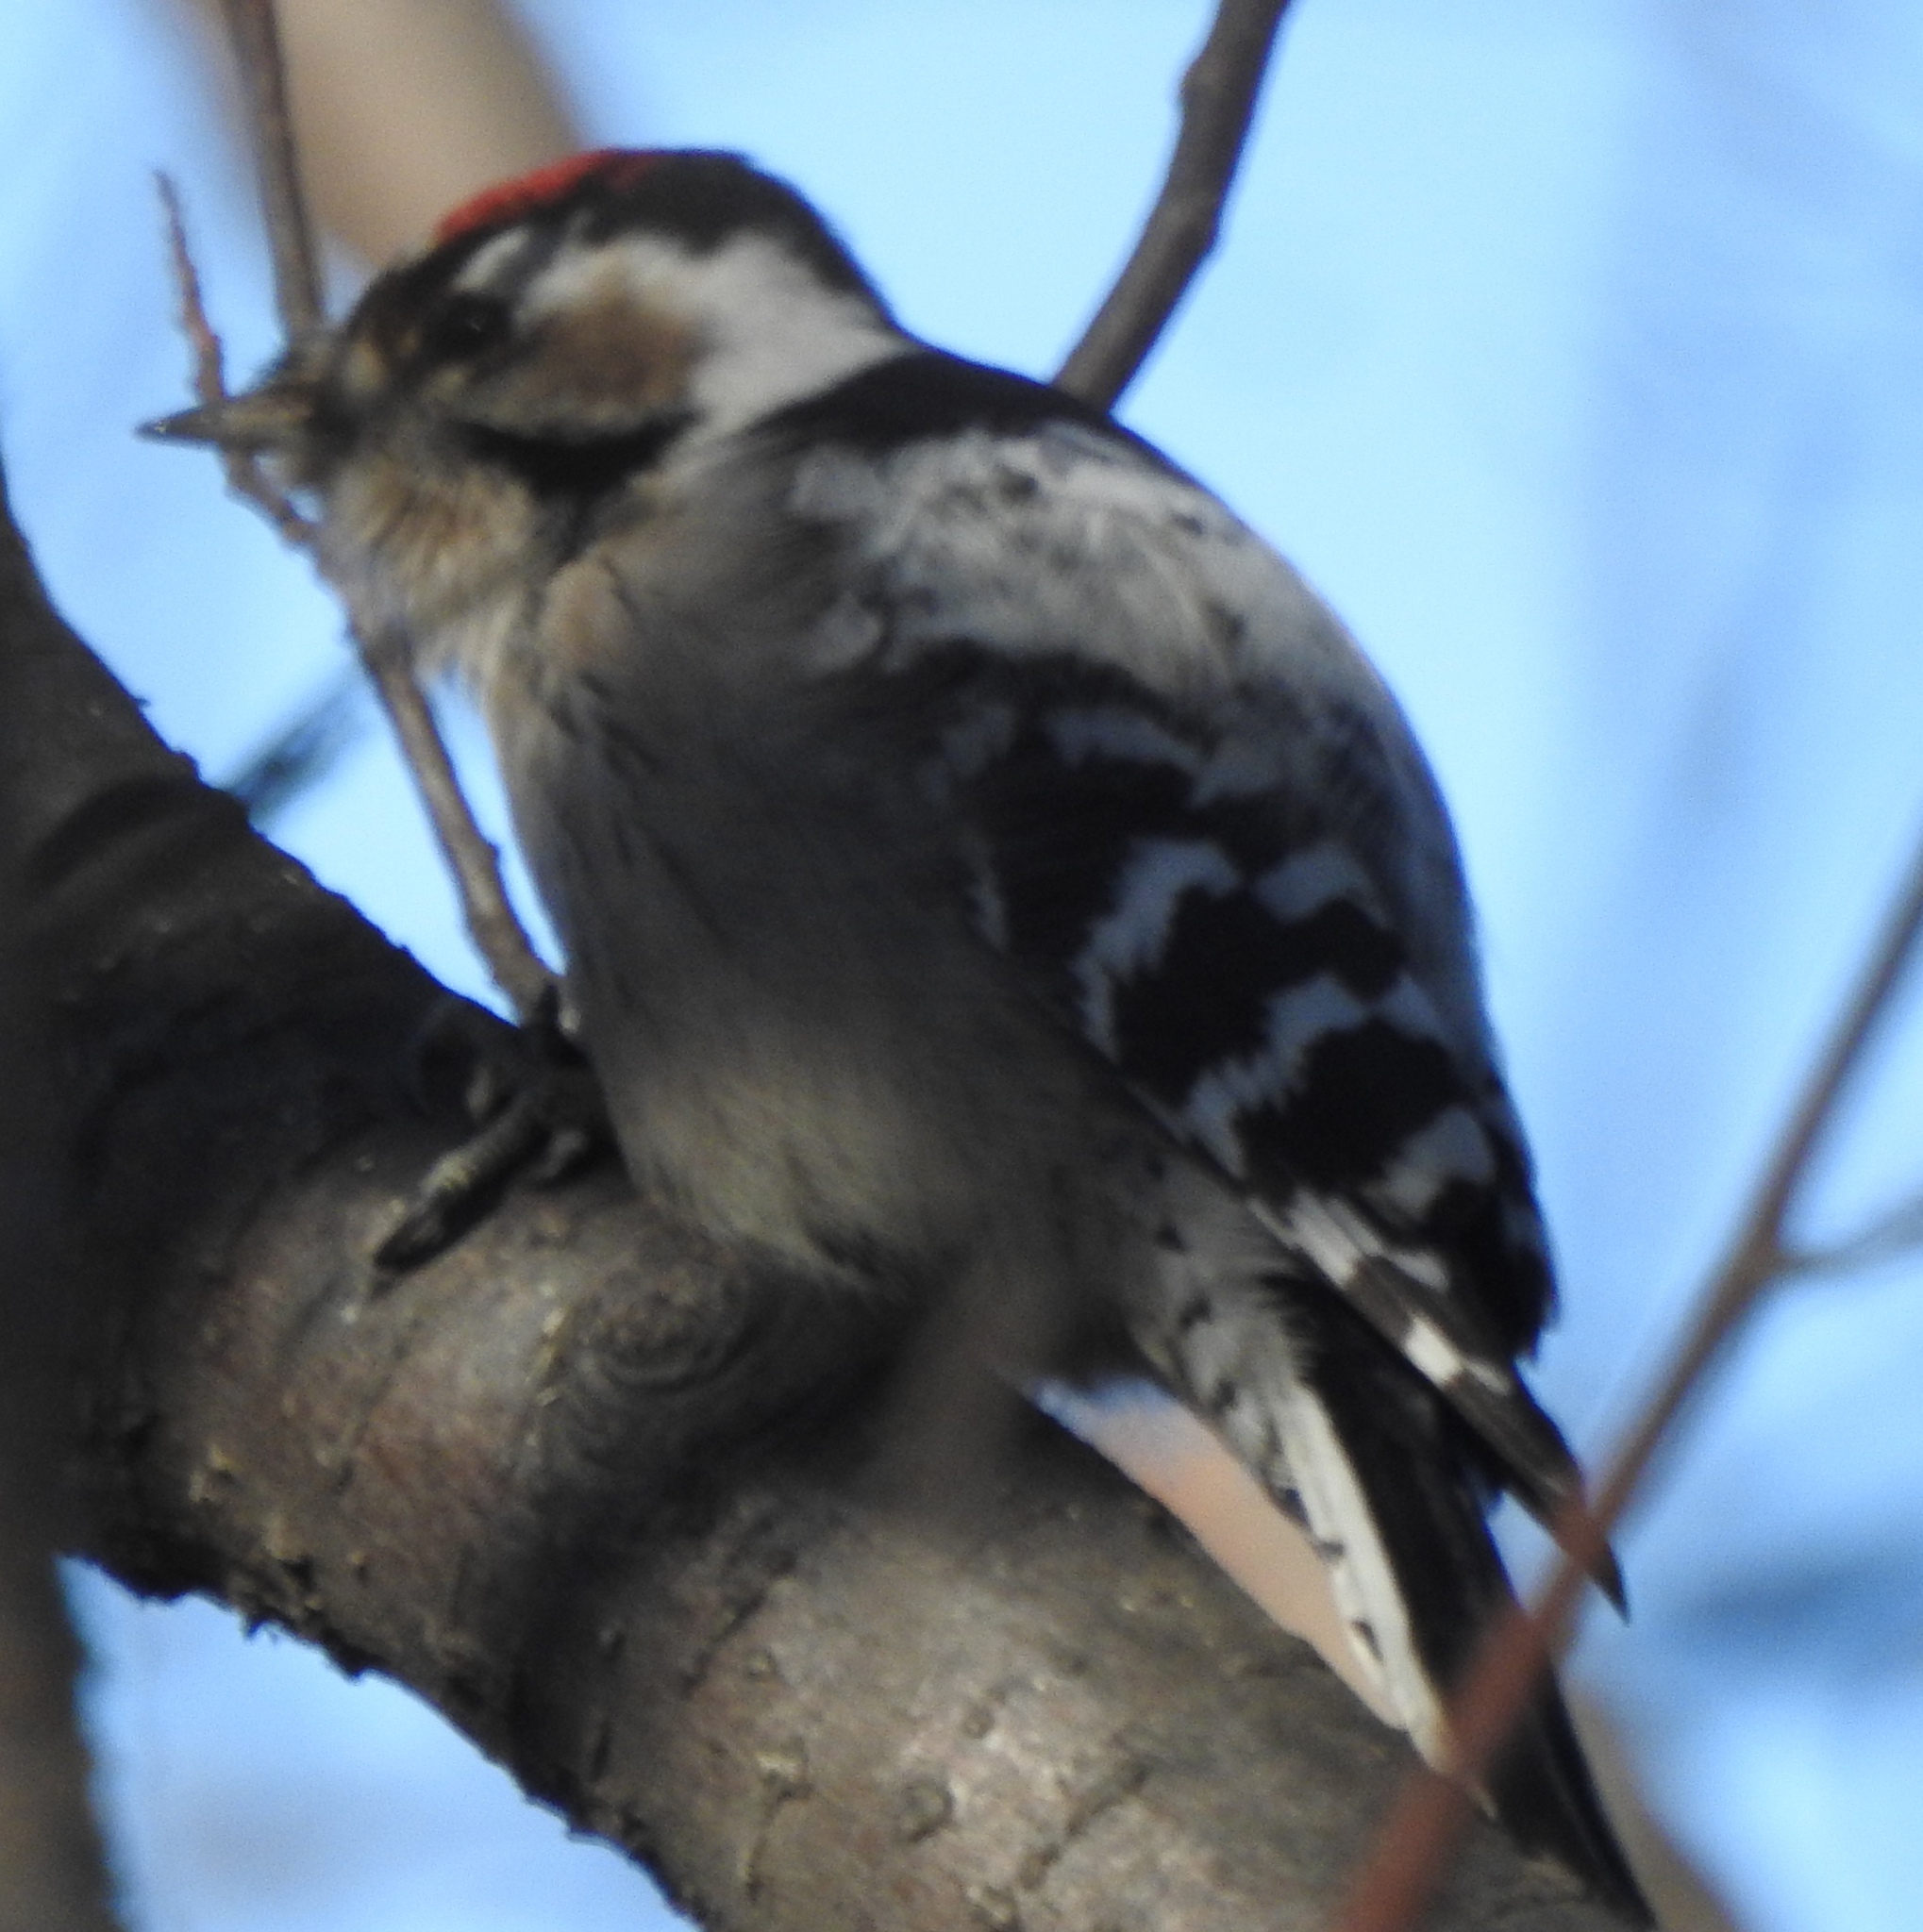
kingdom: Animalia
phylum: Chordata
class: Aves
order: Piciformes
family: Picidae
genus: Dryobates
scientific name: Dryobates minor
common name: Lesser spotted woodpecker
